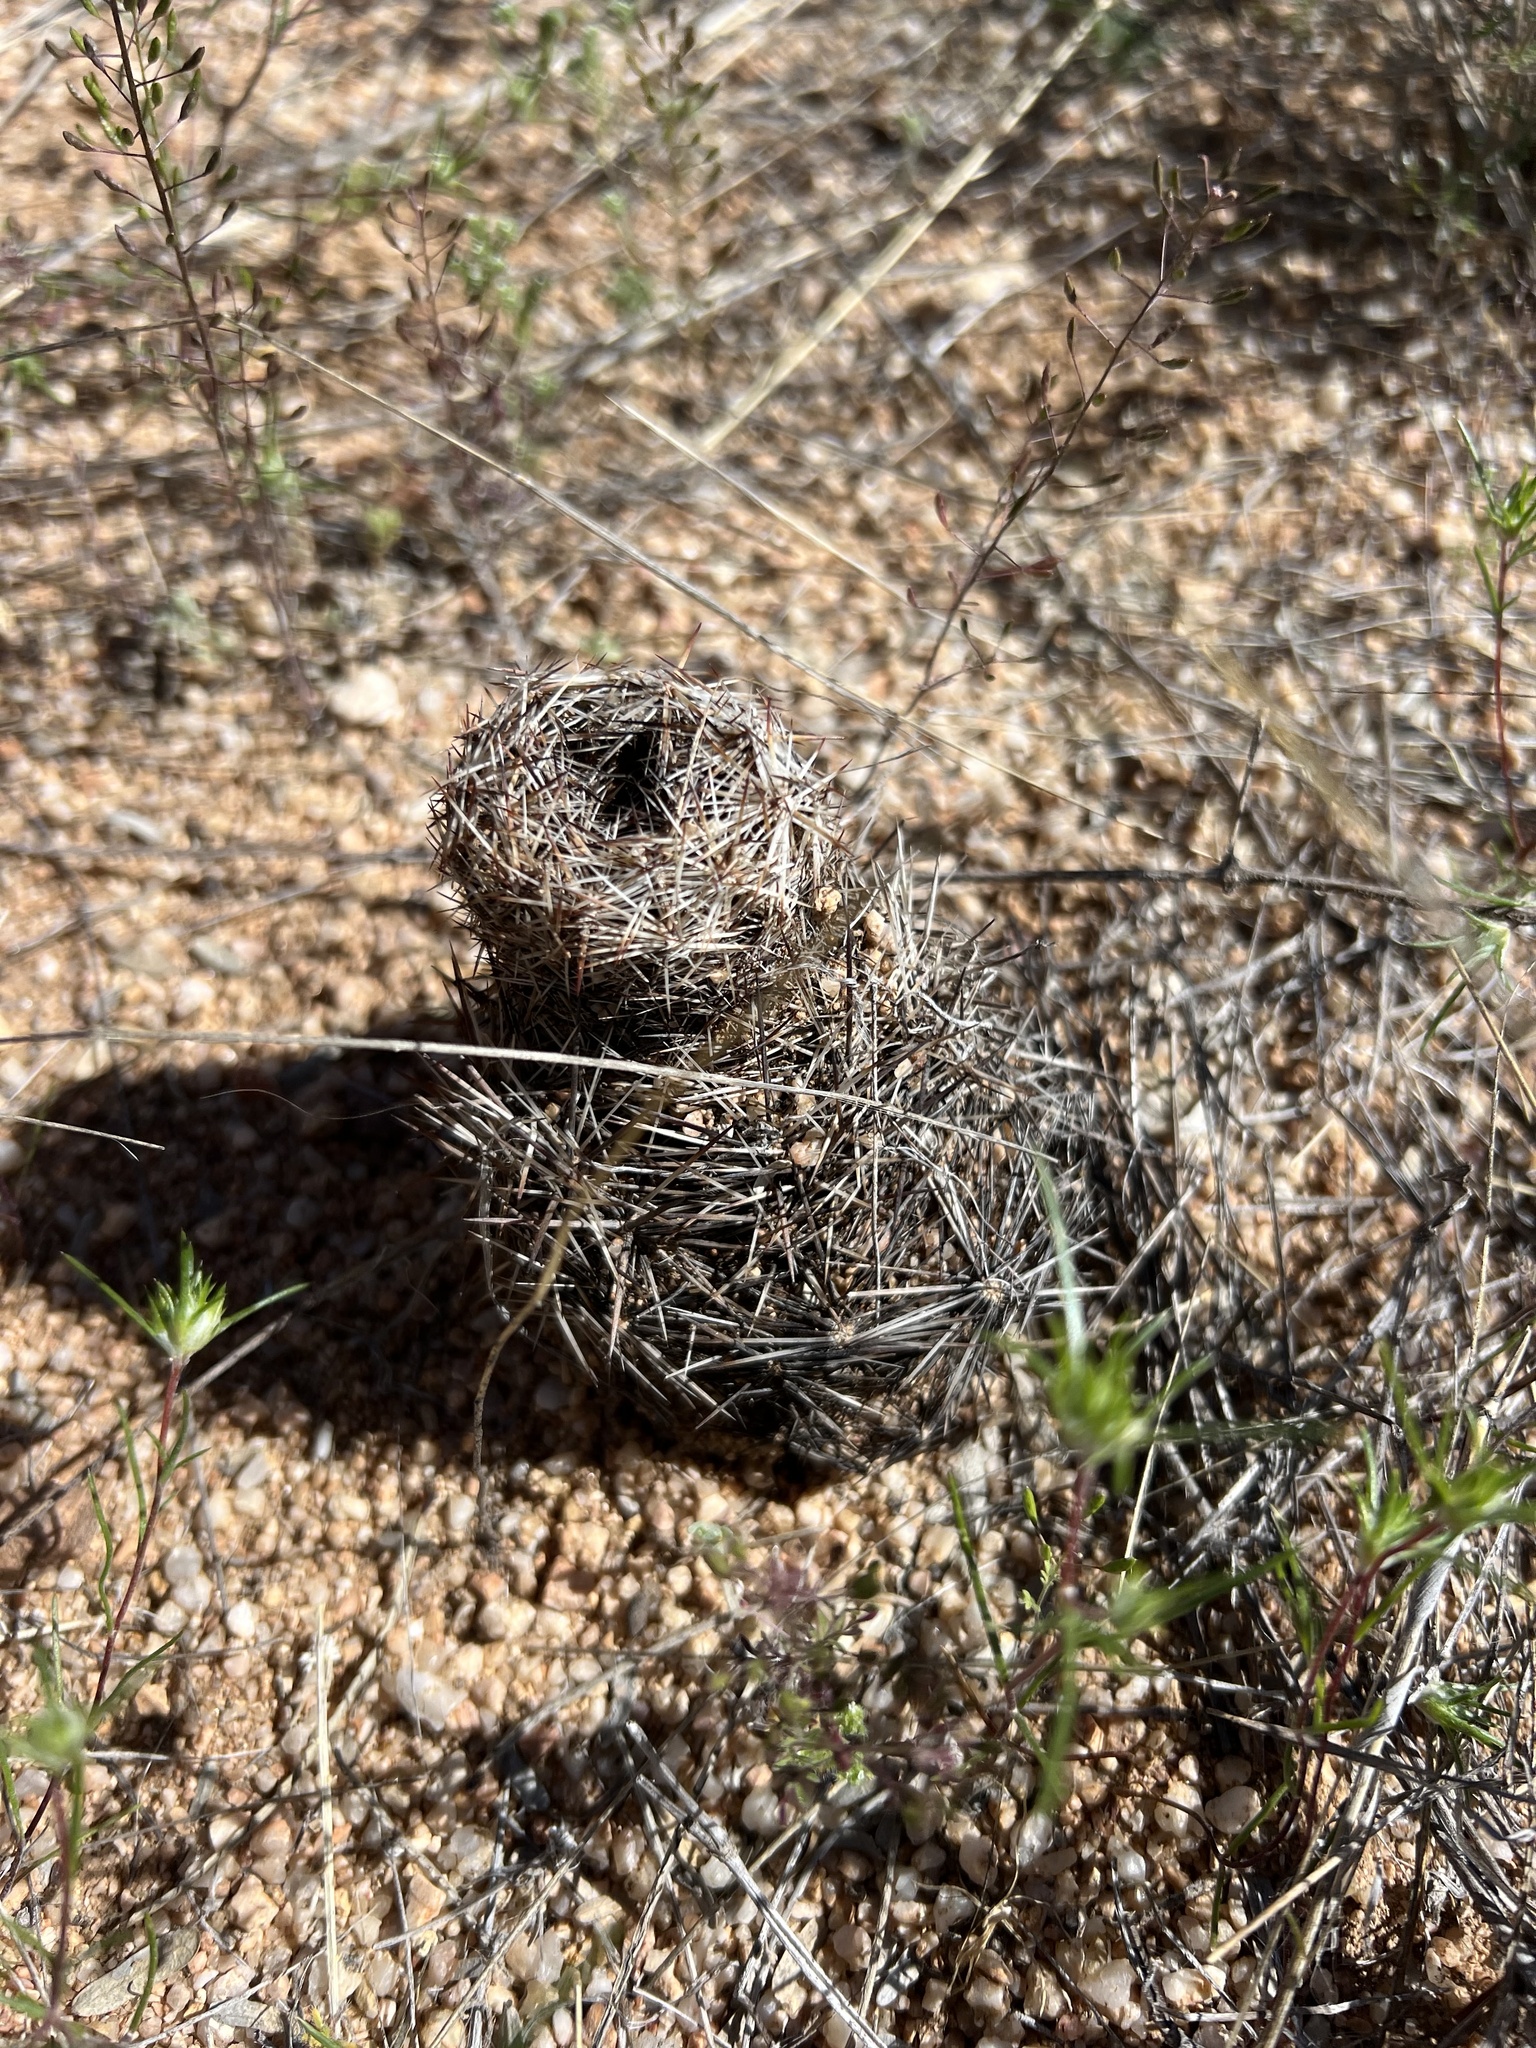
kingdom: Plantae
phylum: Tracheophyta
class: Magnoliopsida
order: Caryophyllales
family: Cactaceae
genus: Pelecyphora
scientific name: Pelecyphora vivipara
